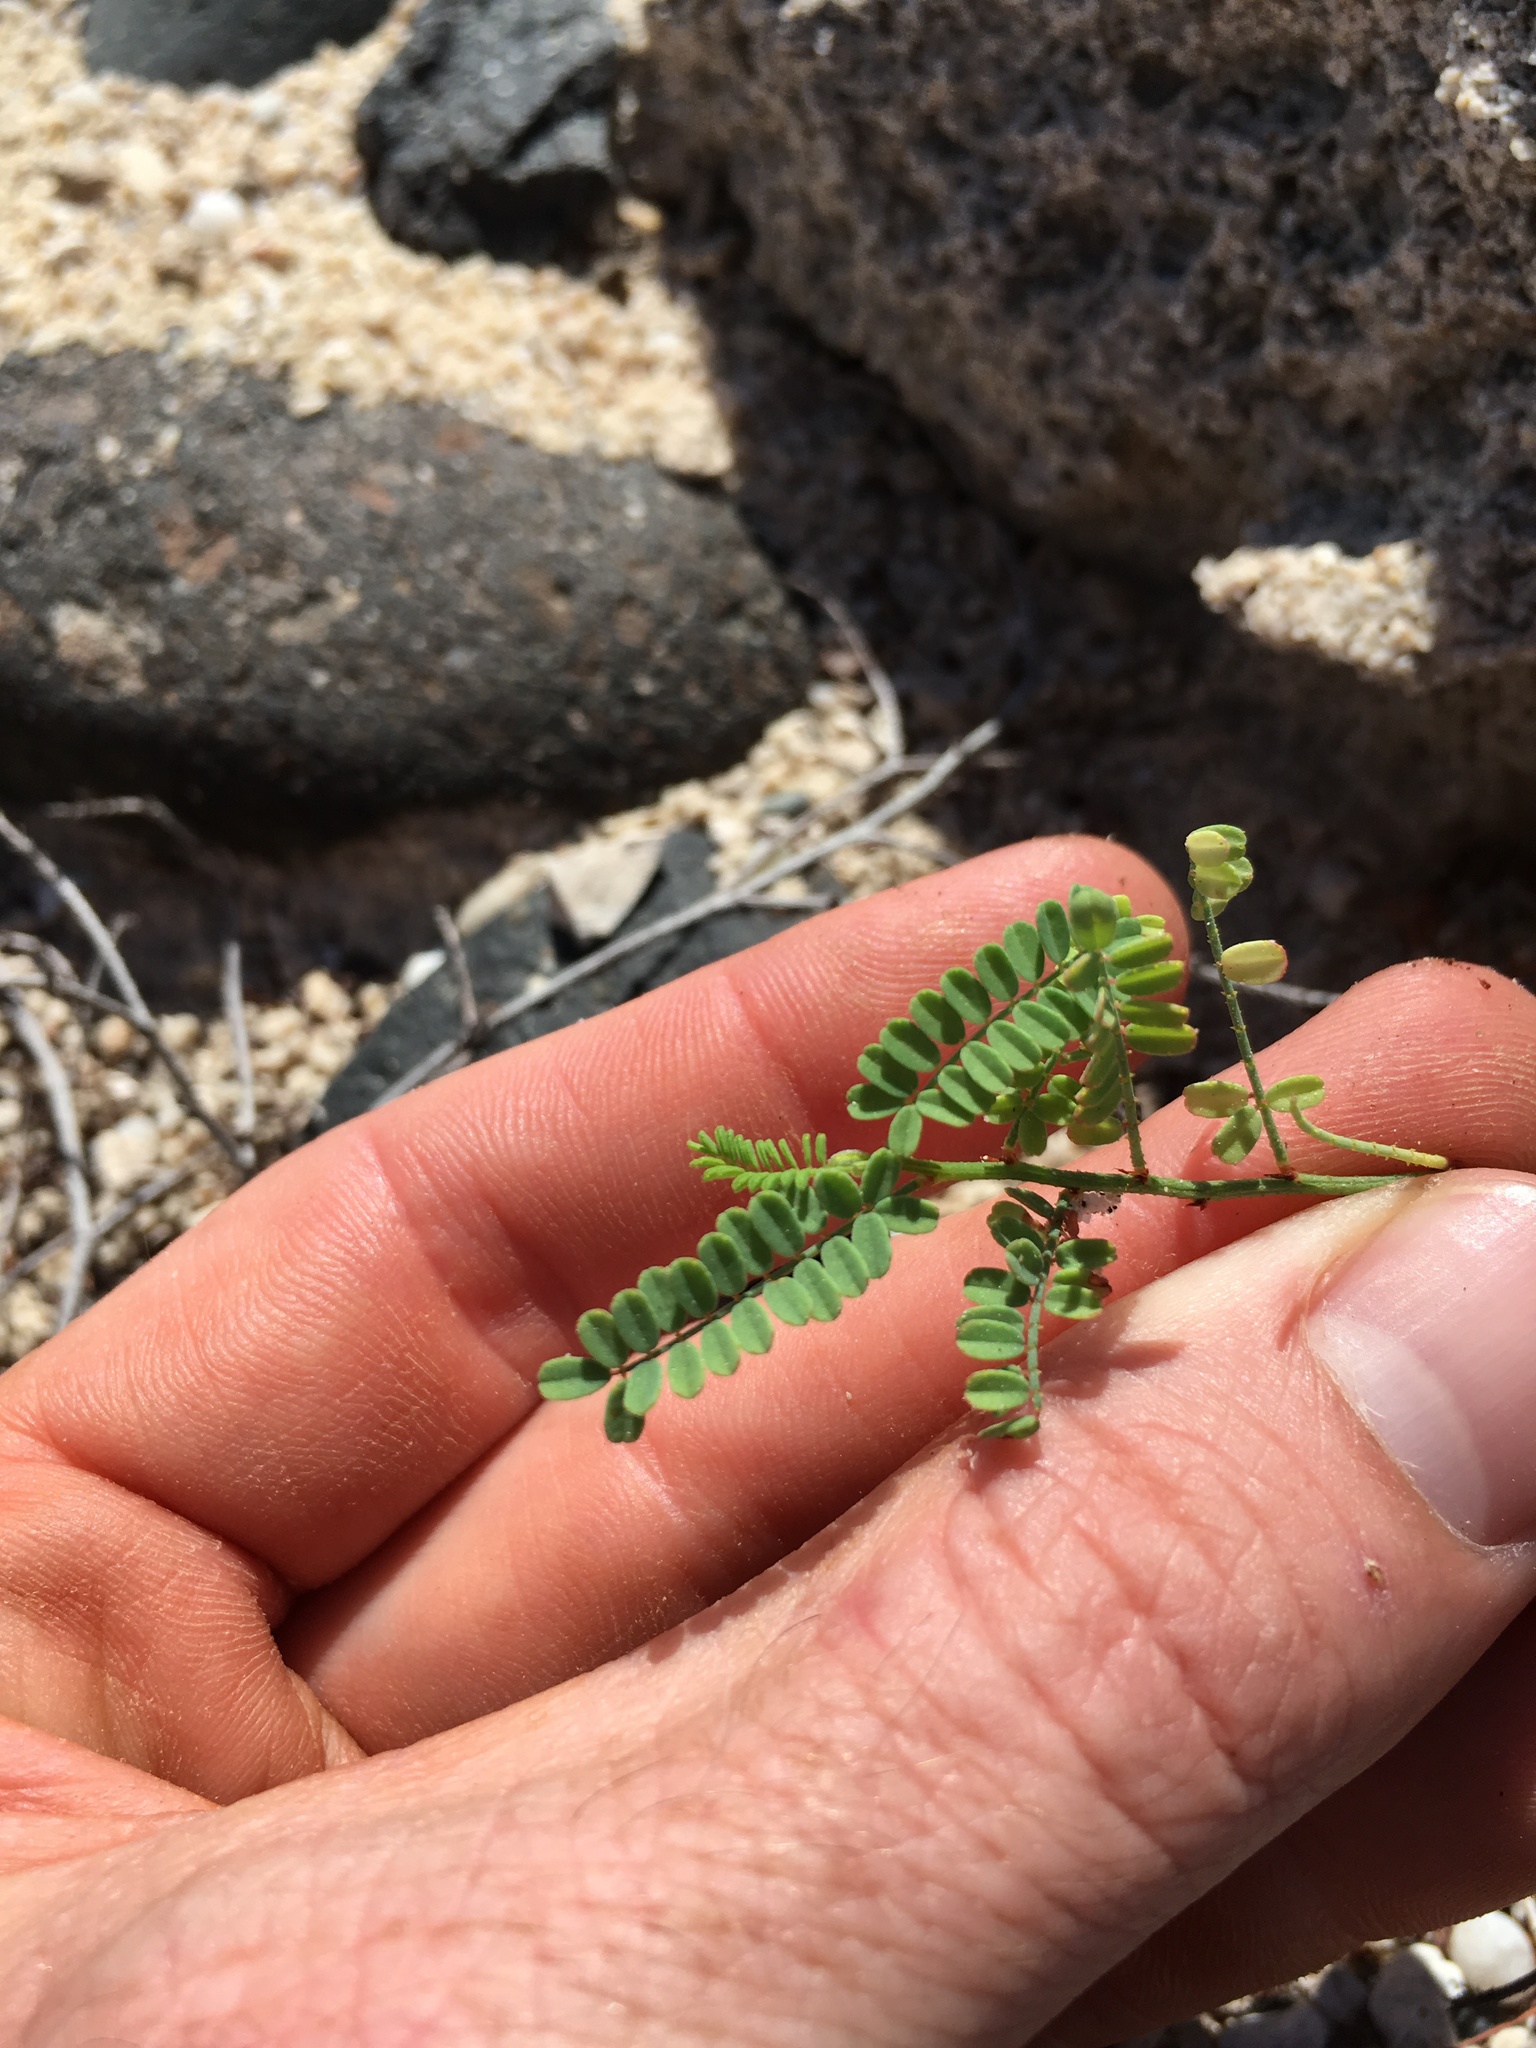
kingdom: Plantae
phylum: Tracheophyta
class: Magnoliopsida
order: Fabales
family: Fabaceae
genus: Marina
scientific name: Marina divaricata
